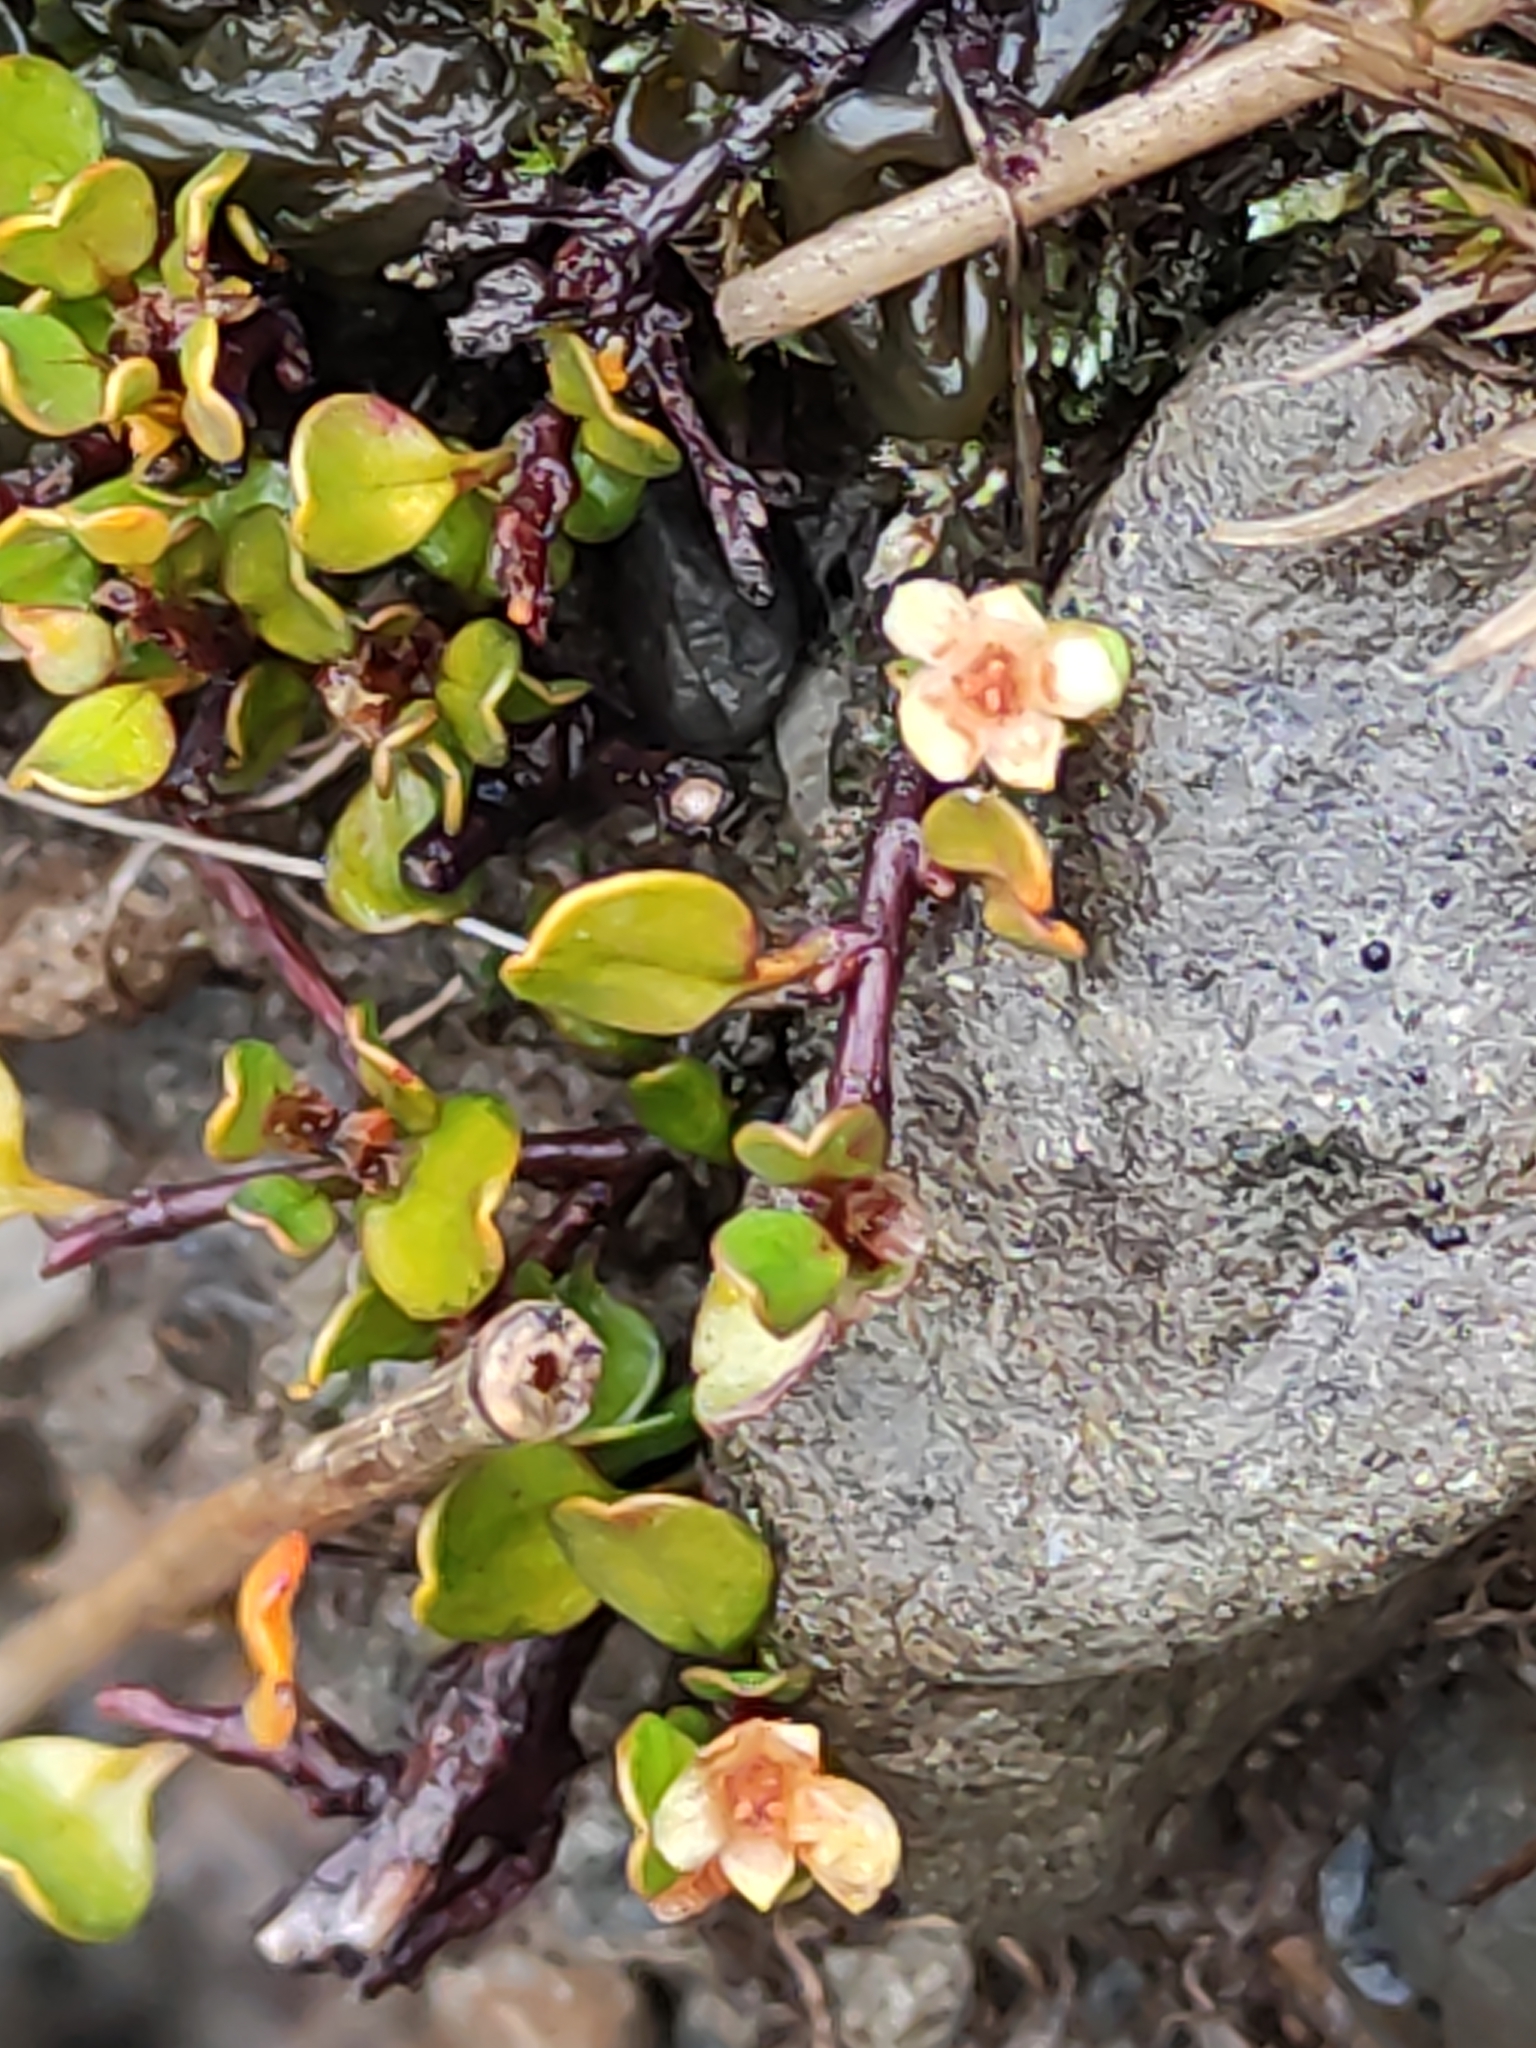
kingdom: Plantae
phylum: Tracheophyta
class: Magnoliopsida
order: Caryophyllales
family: Polygonaceae
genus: Muehlenbeckia
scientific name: Muehlenbeckia axillaris
